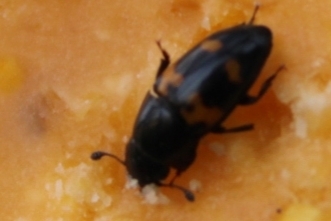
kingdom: Animalia
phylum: Arthropoda
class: Insecta
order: Coleoptera
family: Nitidulidae
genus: Glischrochilus
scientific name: Glischrochilus fasciatus
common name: Picnic beetle
